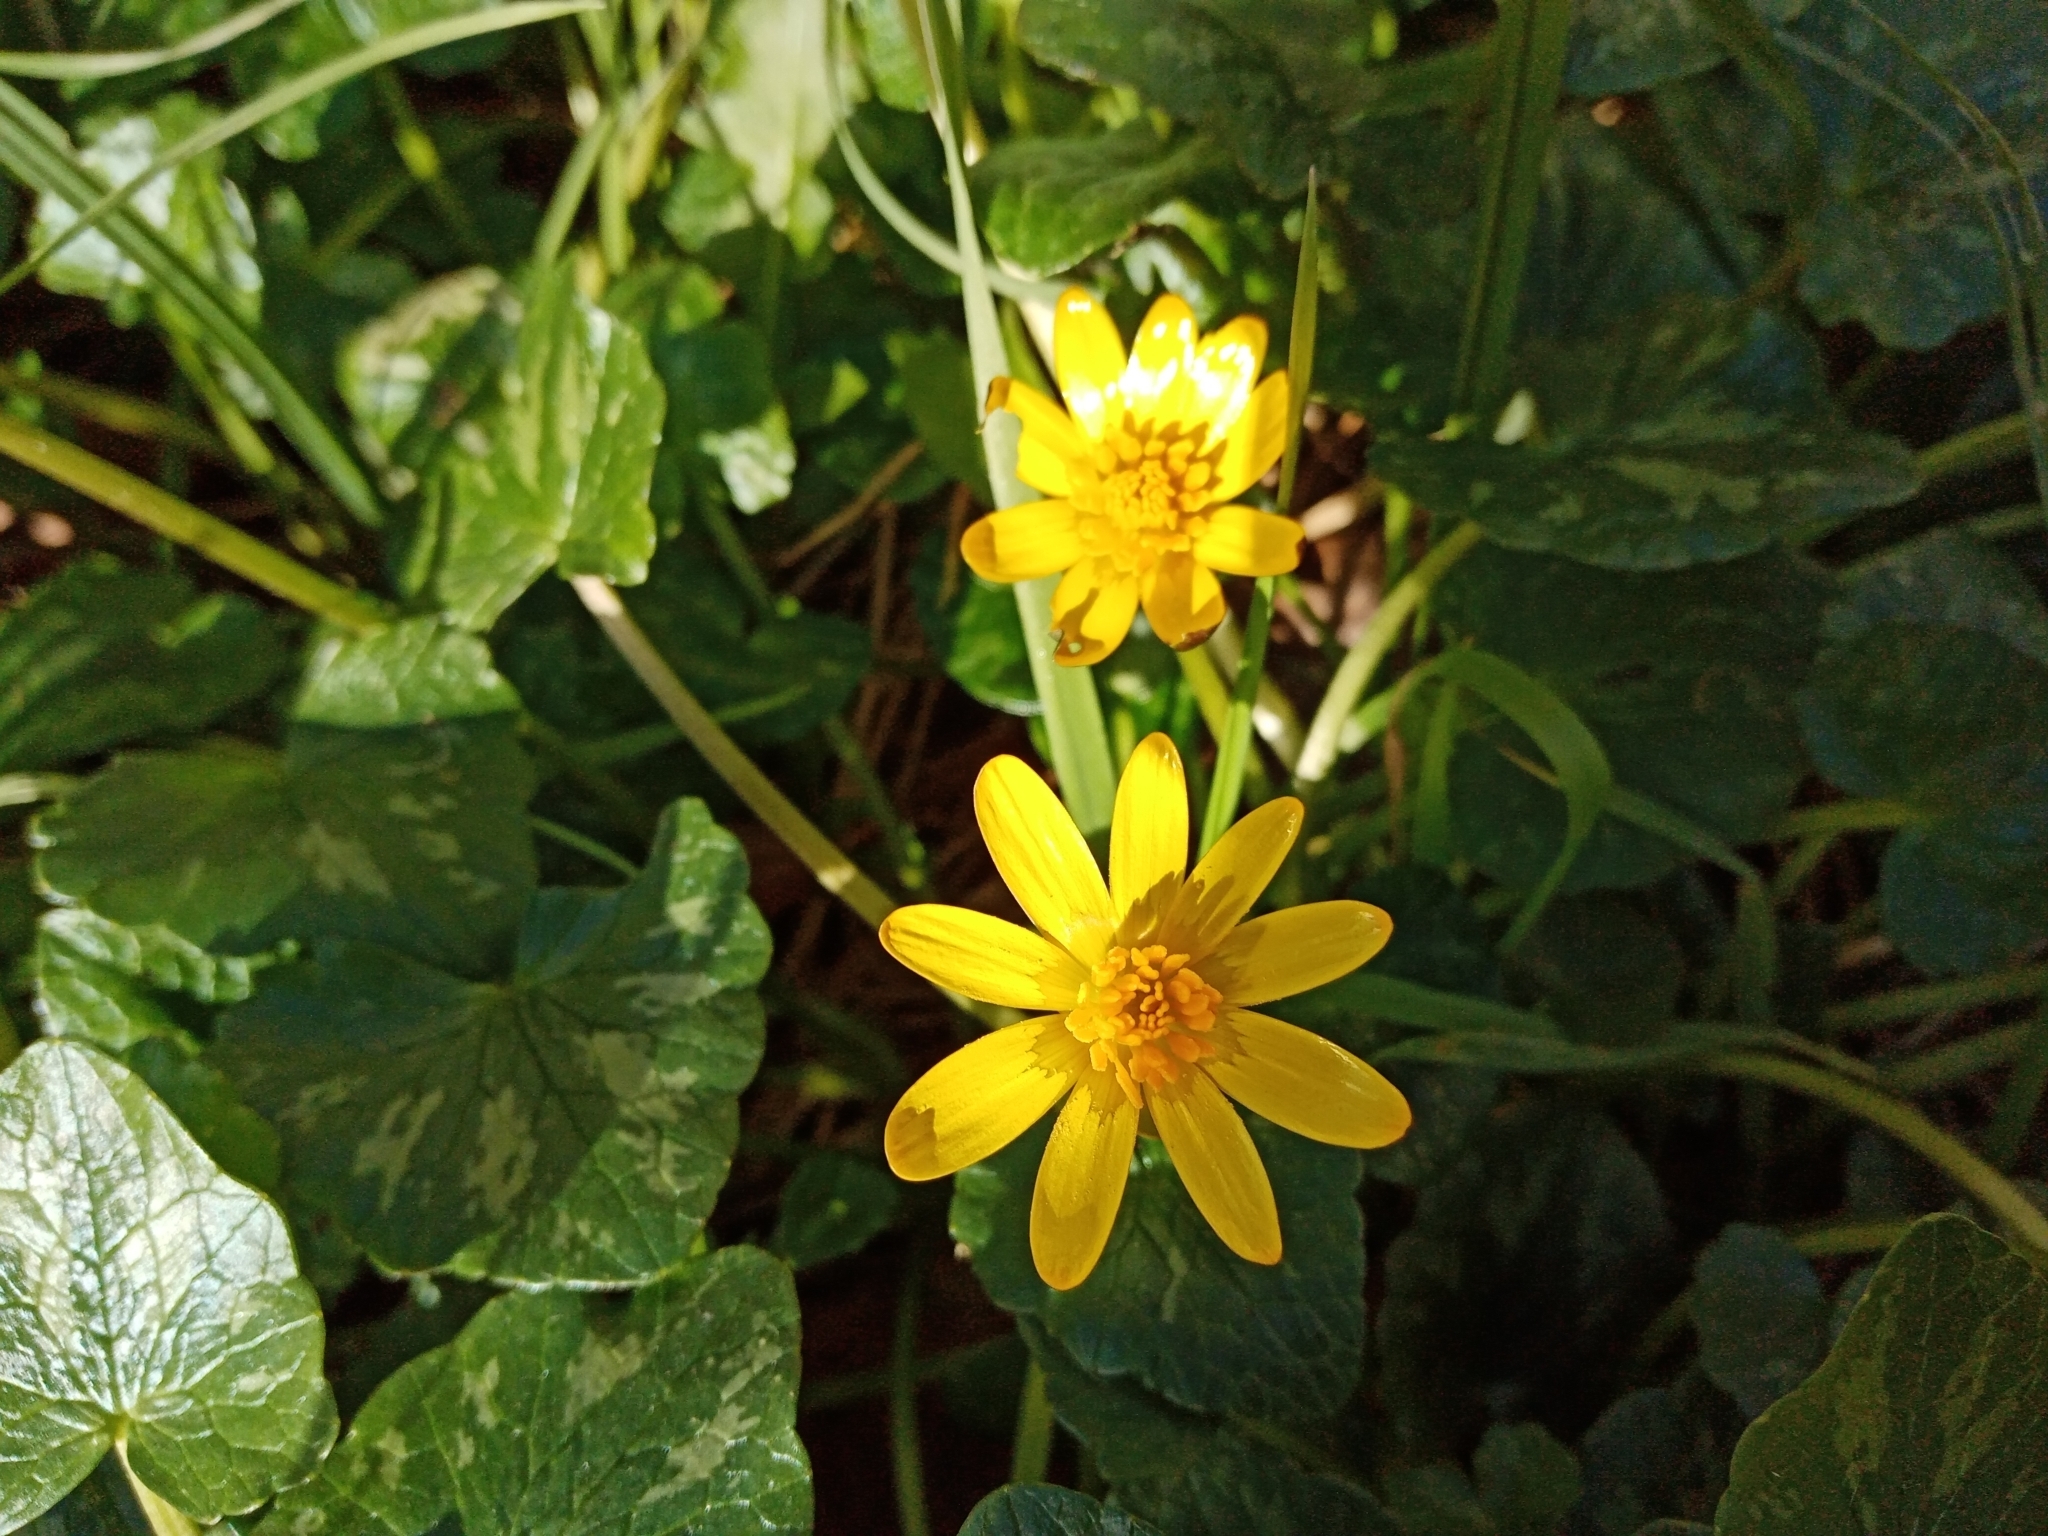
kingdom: Plantae
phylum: Tracheophyta
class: Magnoliopsida
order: Ranunculales
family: Ranunculaceae
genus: Ficaria
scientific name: Ficaria verna
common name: Lesser celandine
